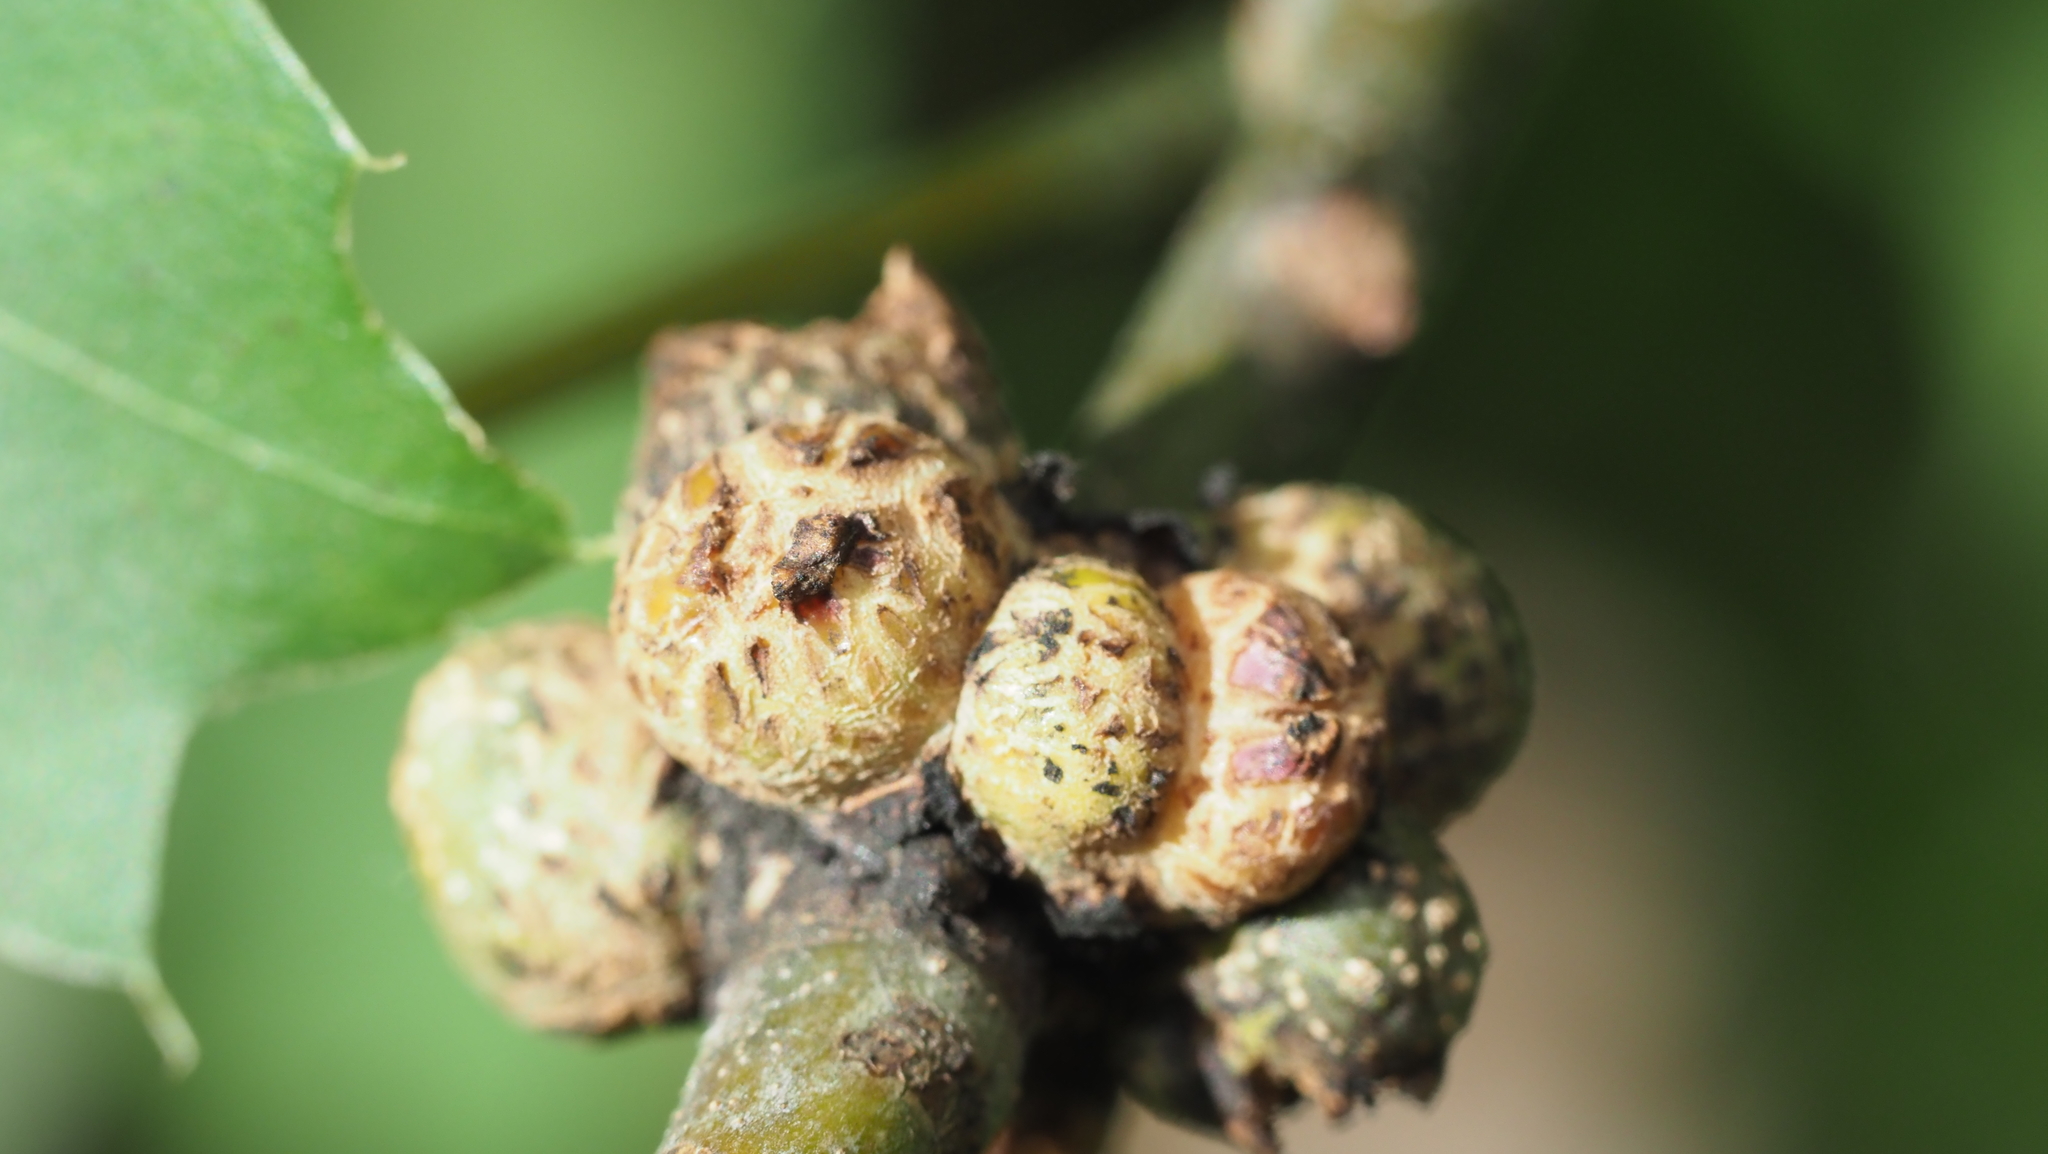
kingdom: Animalia
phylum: Arthropoda
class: Insecta
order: Hymenoptera
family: Cynipidae
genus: Callirhytis
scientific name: Callirhytis
